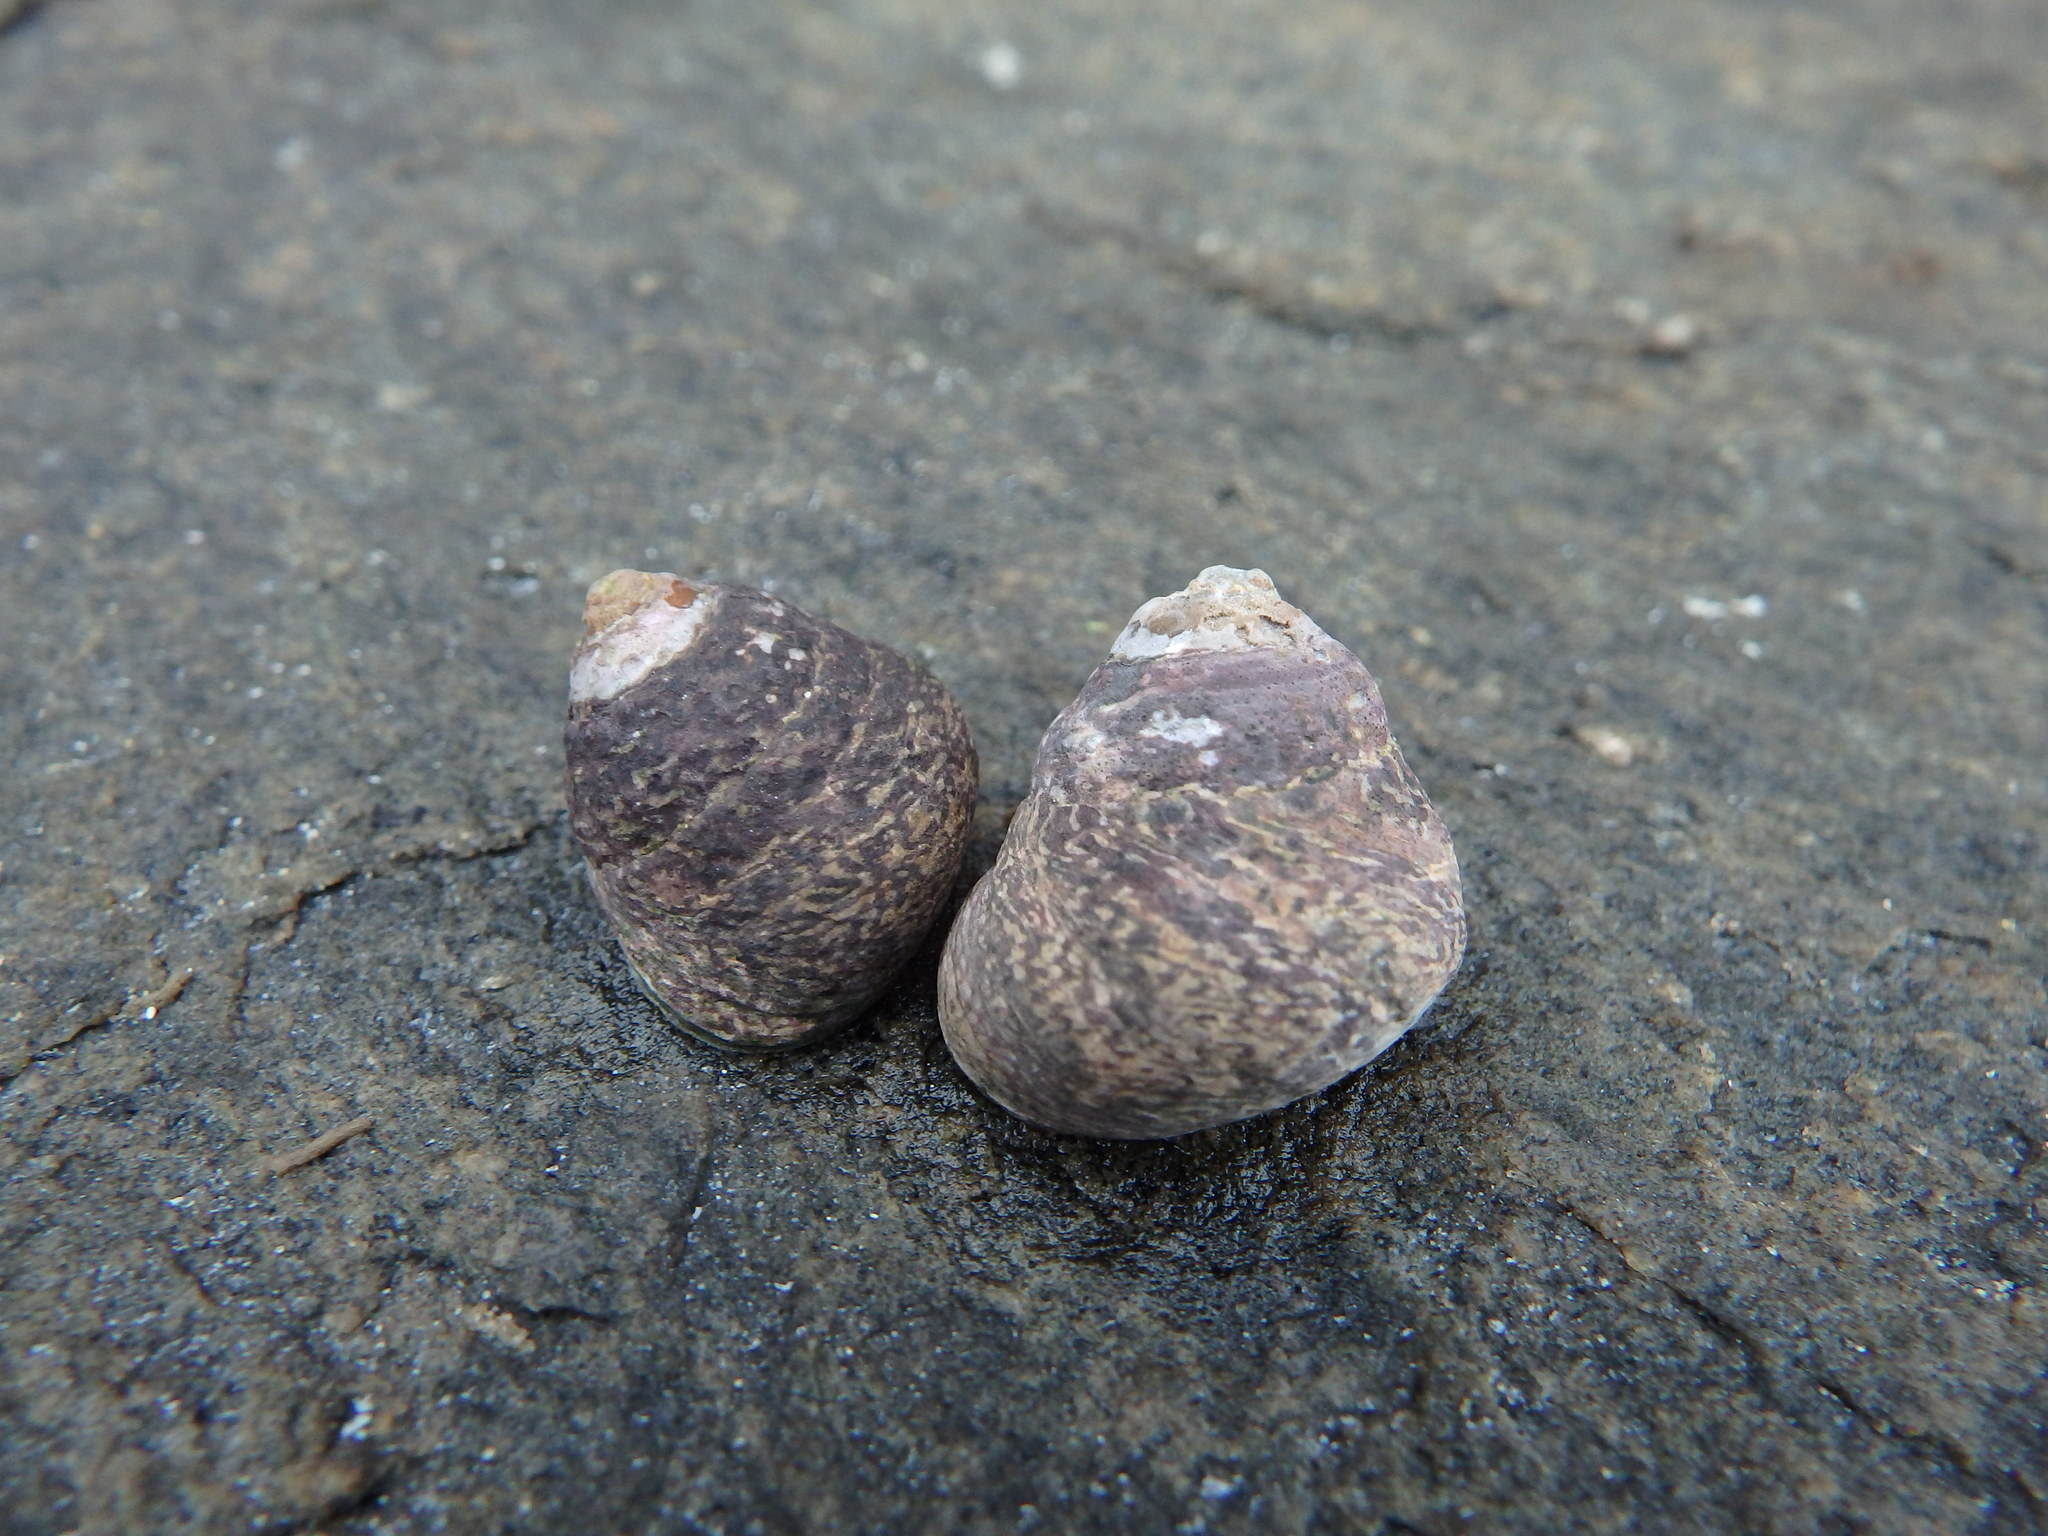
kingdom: Animalia
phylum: Mollusca
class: Gastropoda
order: Trochida
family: Trochidae
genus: Phorcus
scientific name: Phorcus lineatus
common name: Toothed top shell
